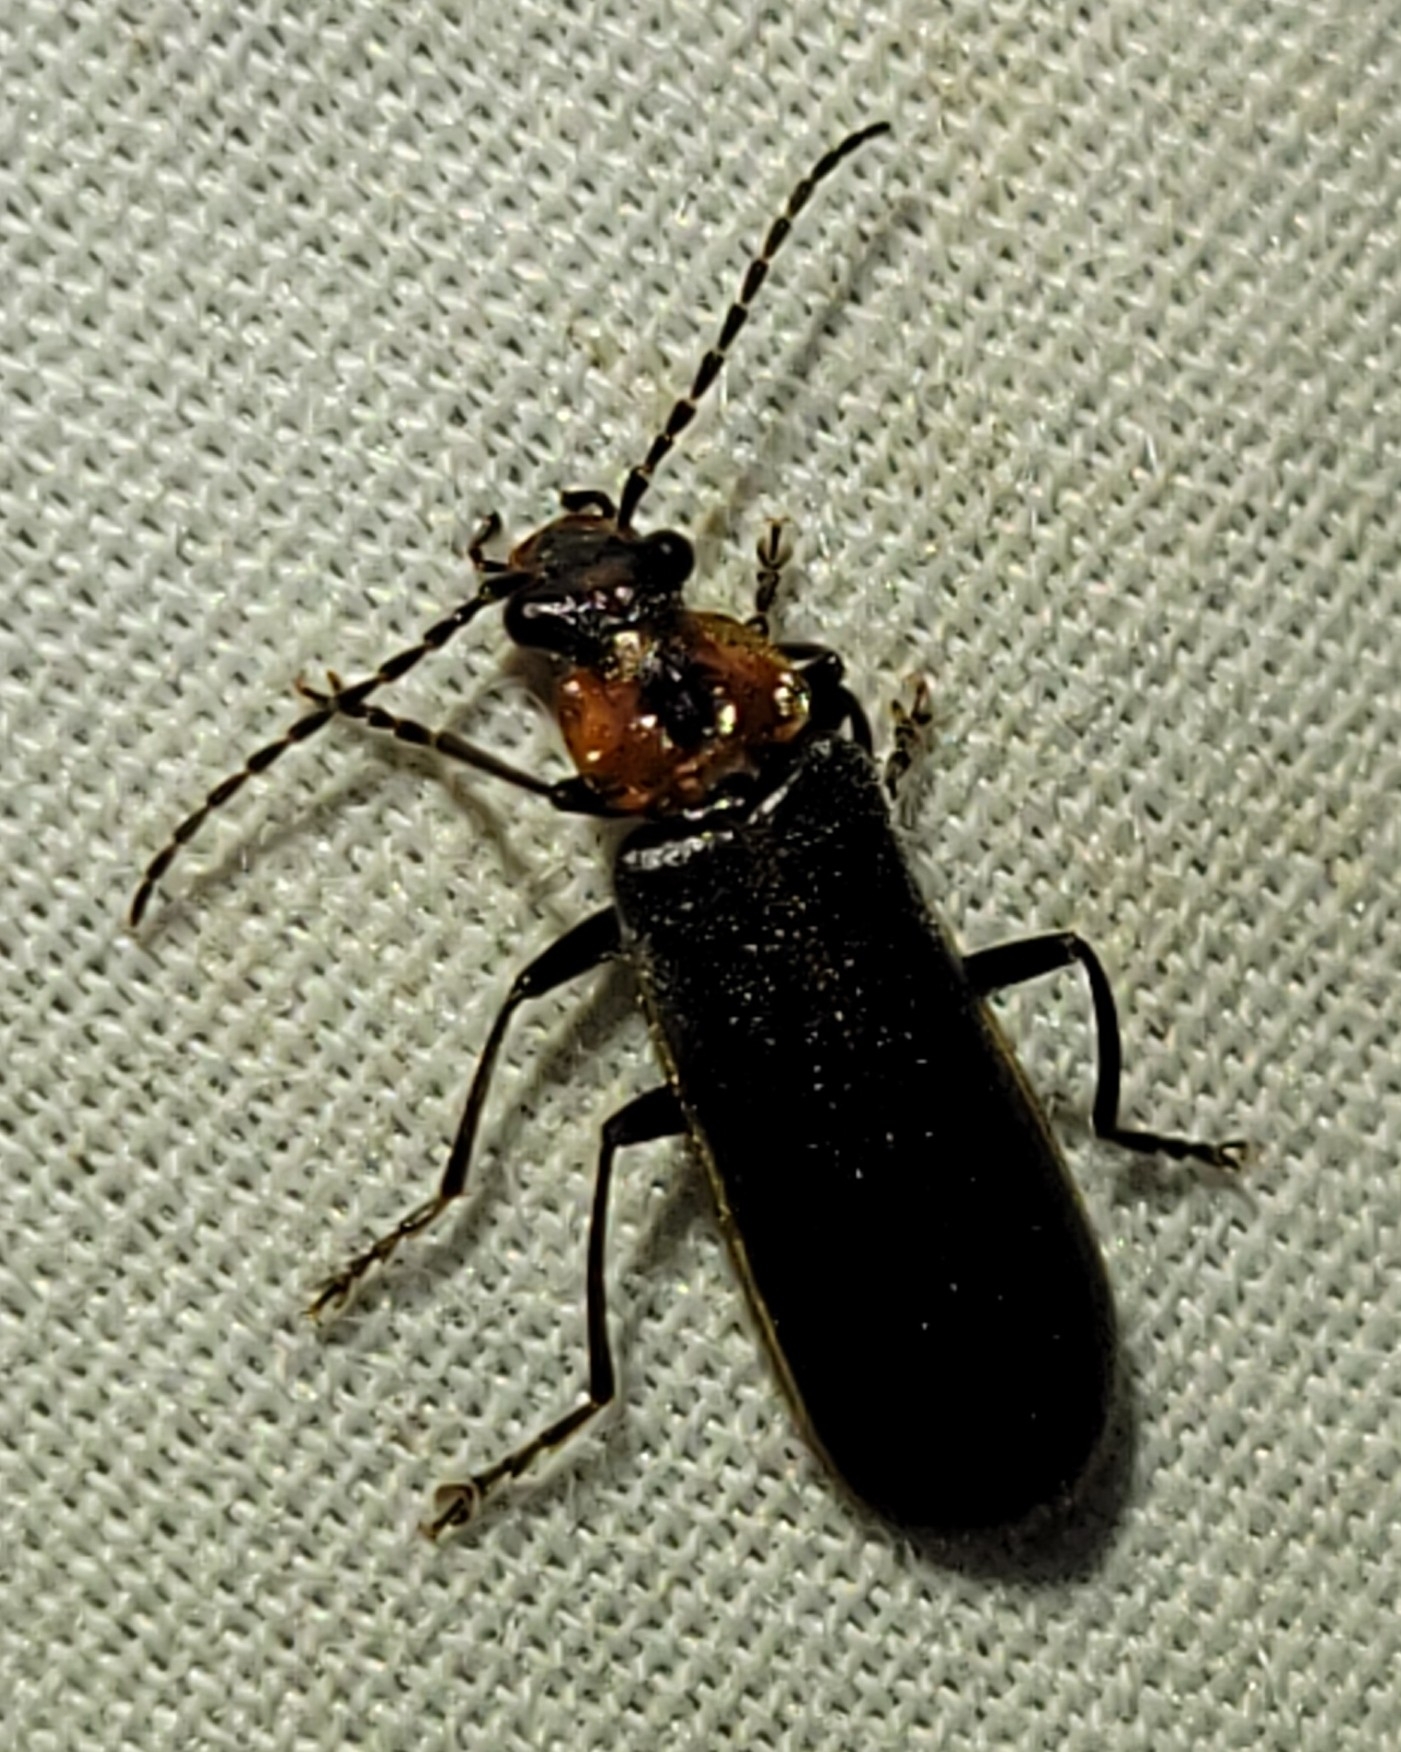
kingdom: Animalia
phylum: Arthropoda
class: Insecta
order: Coleoptera
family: Cantharidae
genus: Podabrus
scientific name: Podabrus brimleyi
